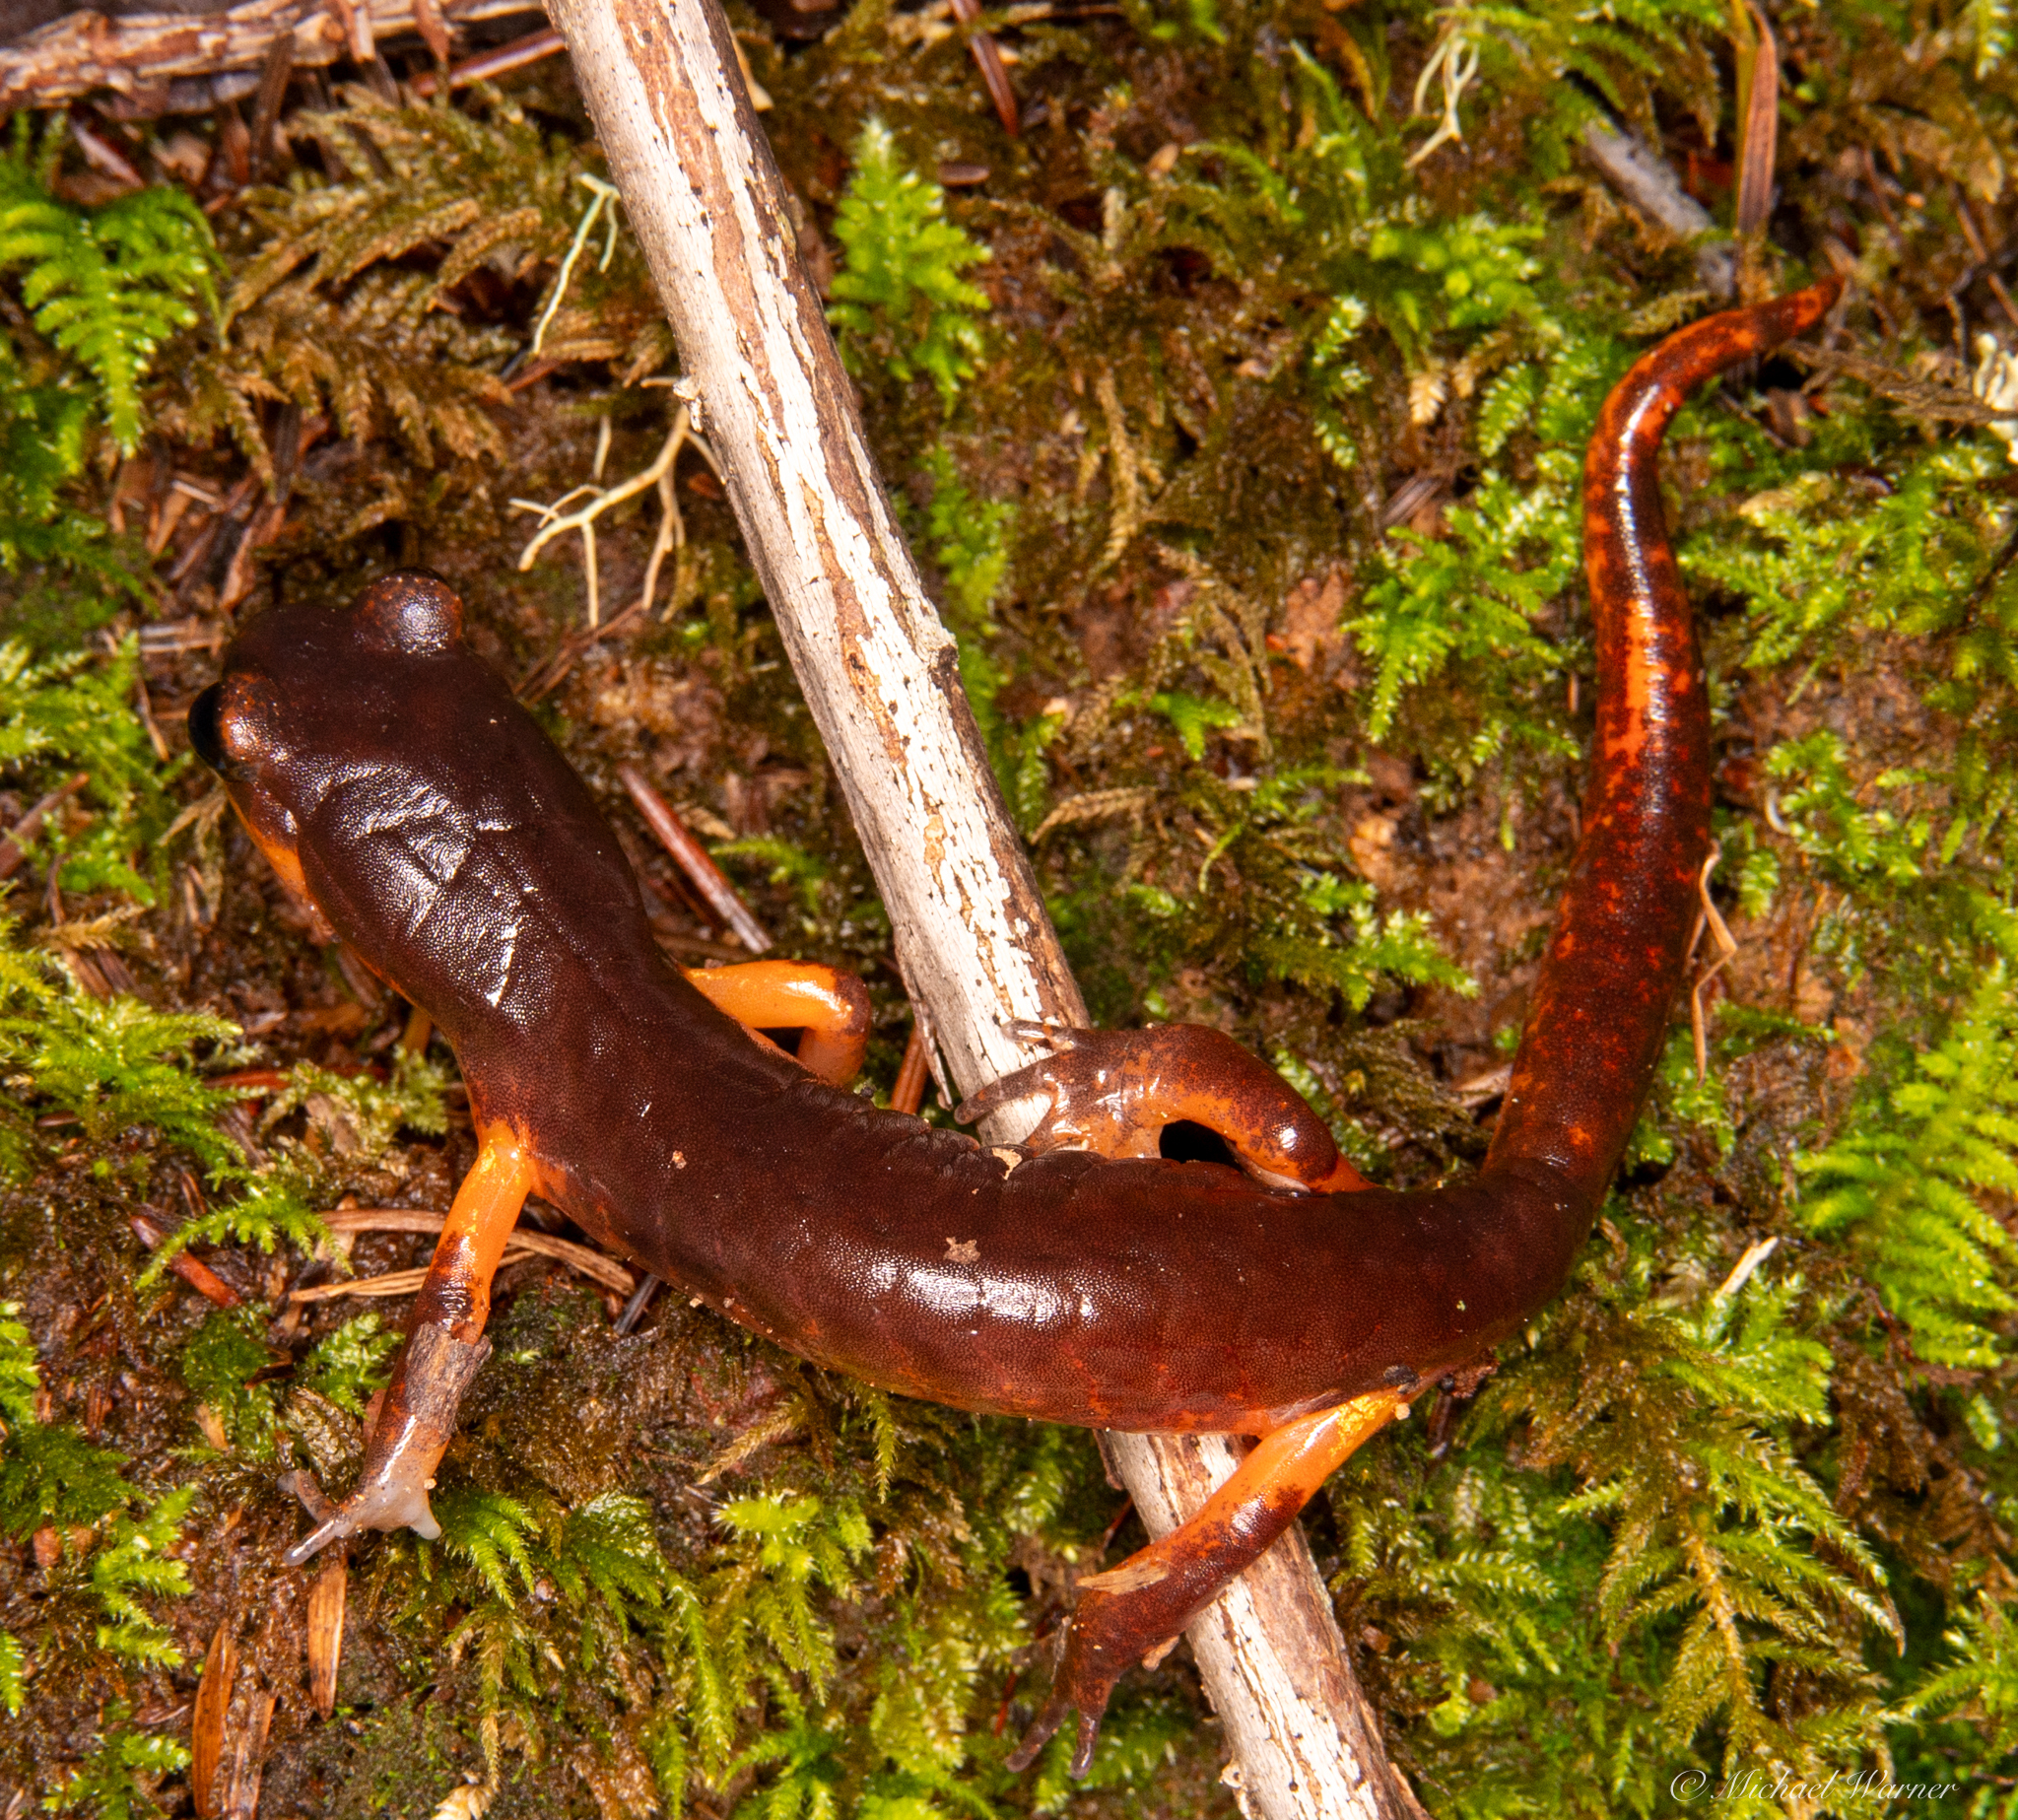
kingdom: Animalia
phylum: Chordata
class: Amphibia
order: Caudata
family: Plethodontidae
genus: Ensatina
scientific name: Ensatina eschscholtzii
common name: Ensatina
